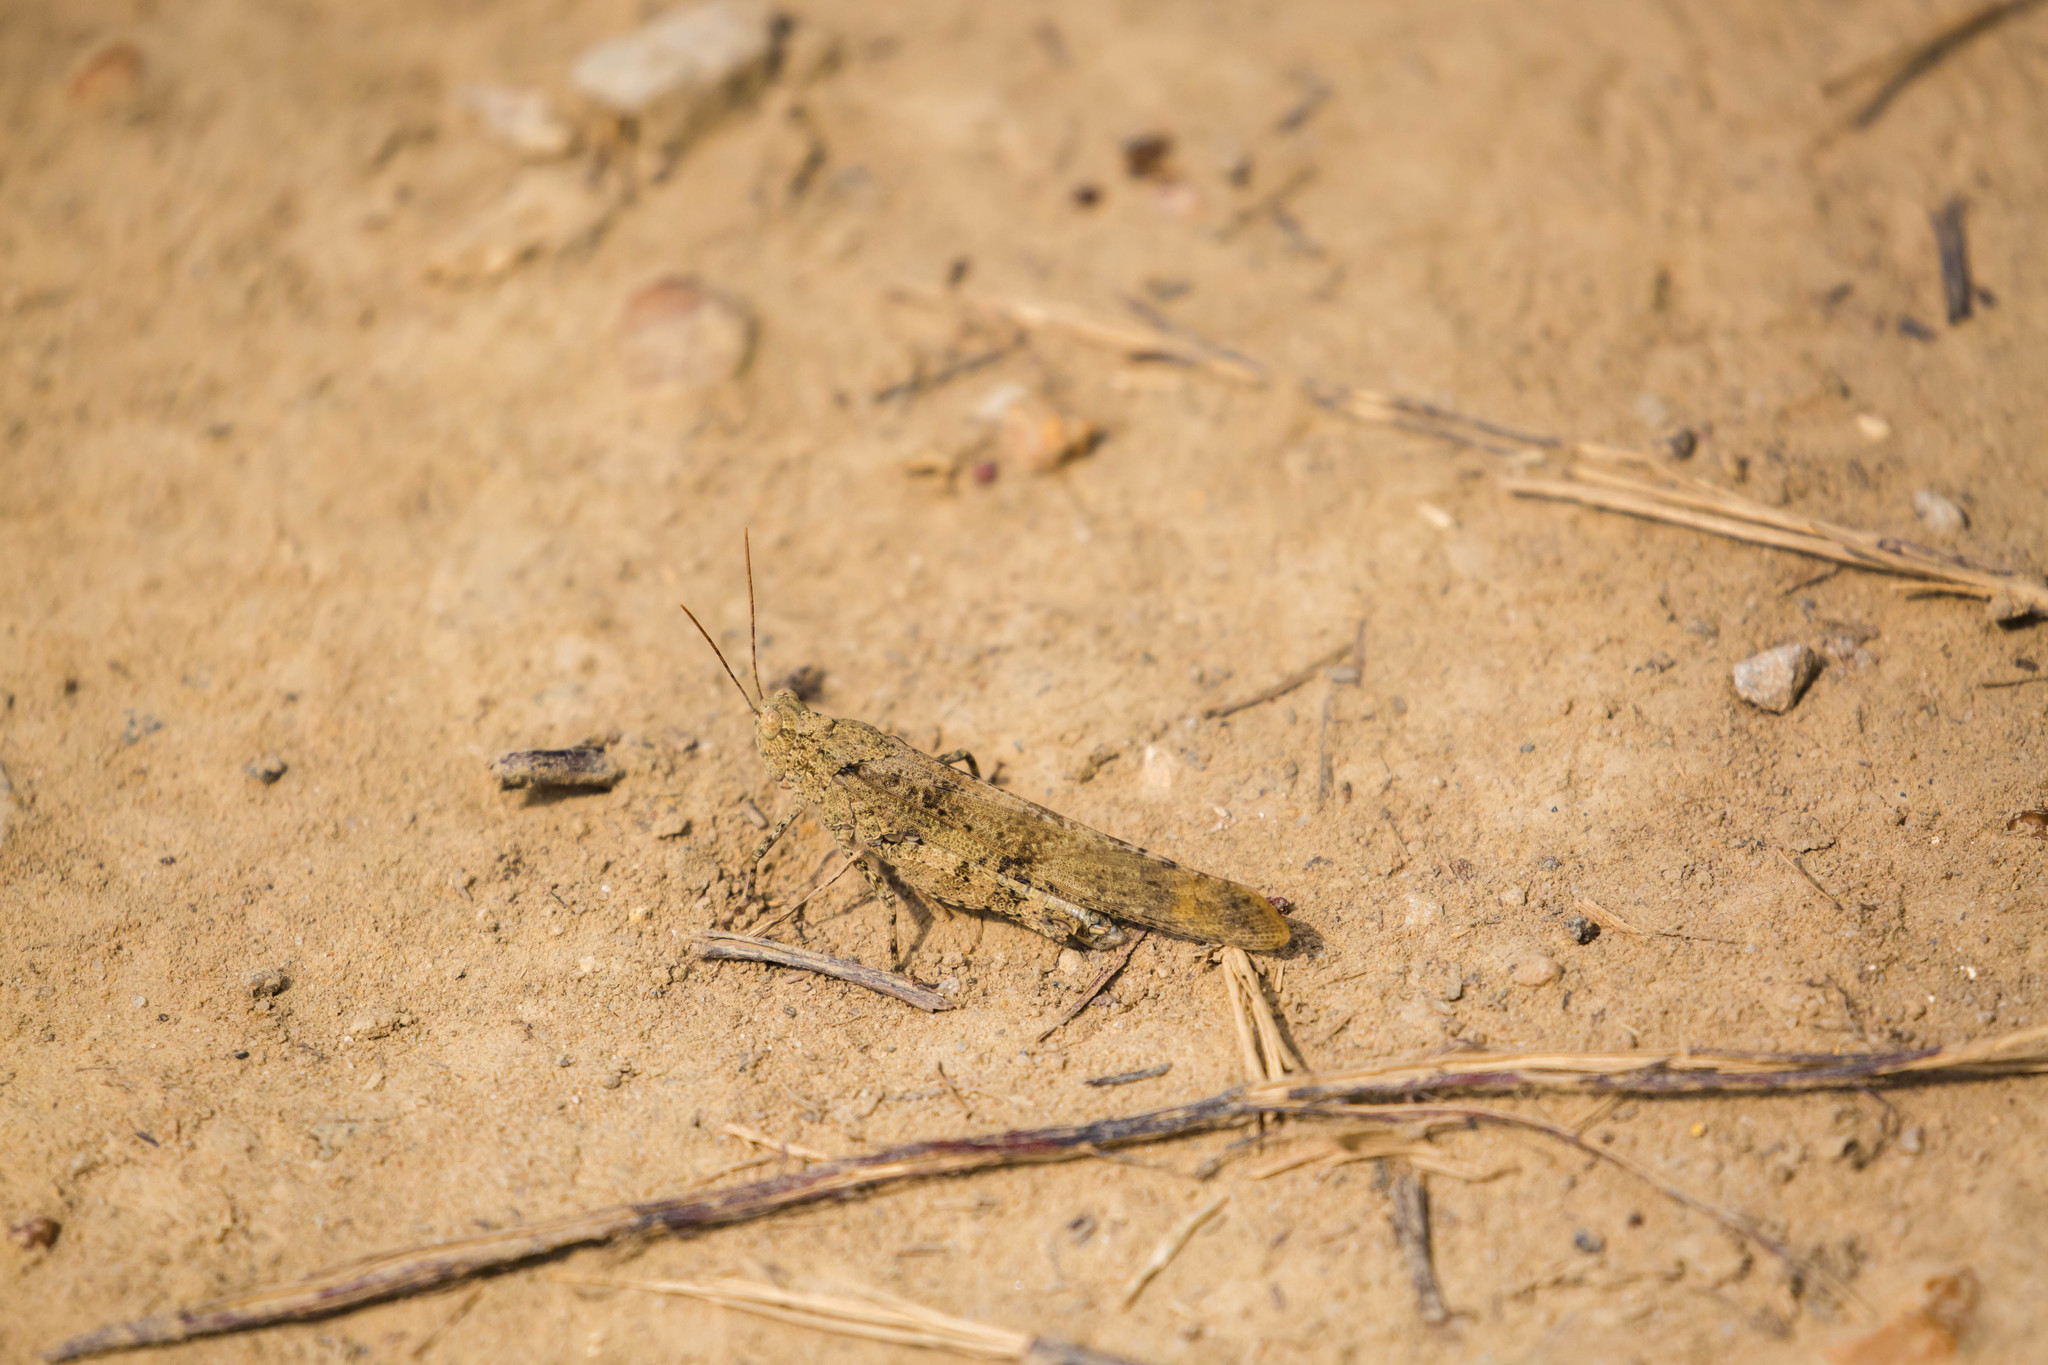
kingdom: Animalia
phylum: Arthropoda
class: Insecta
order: Orthoptera
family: Acrididae
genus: Dissosteira
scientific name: Dissosteira carolina
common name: Carolina grasshopper
